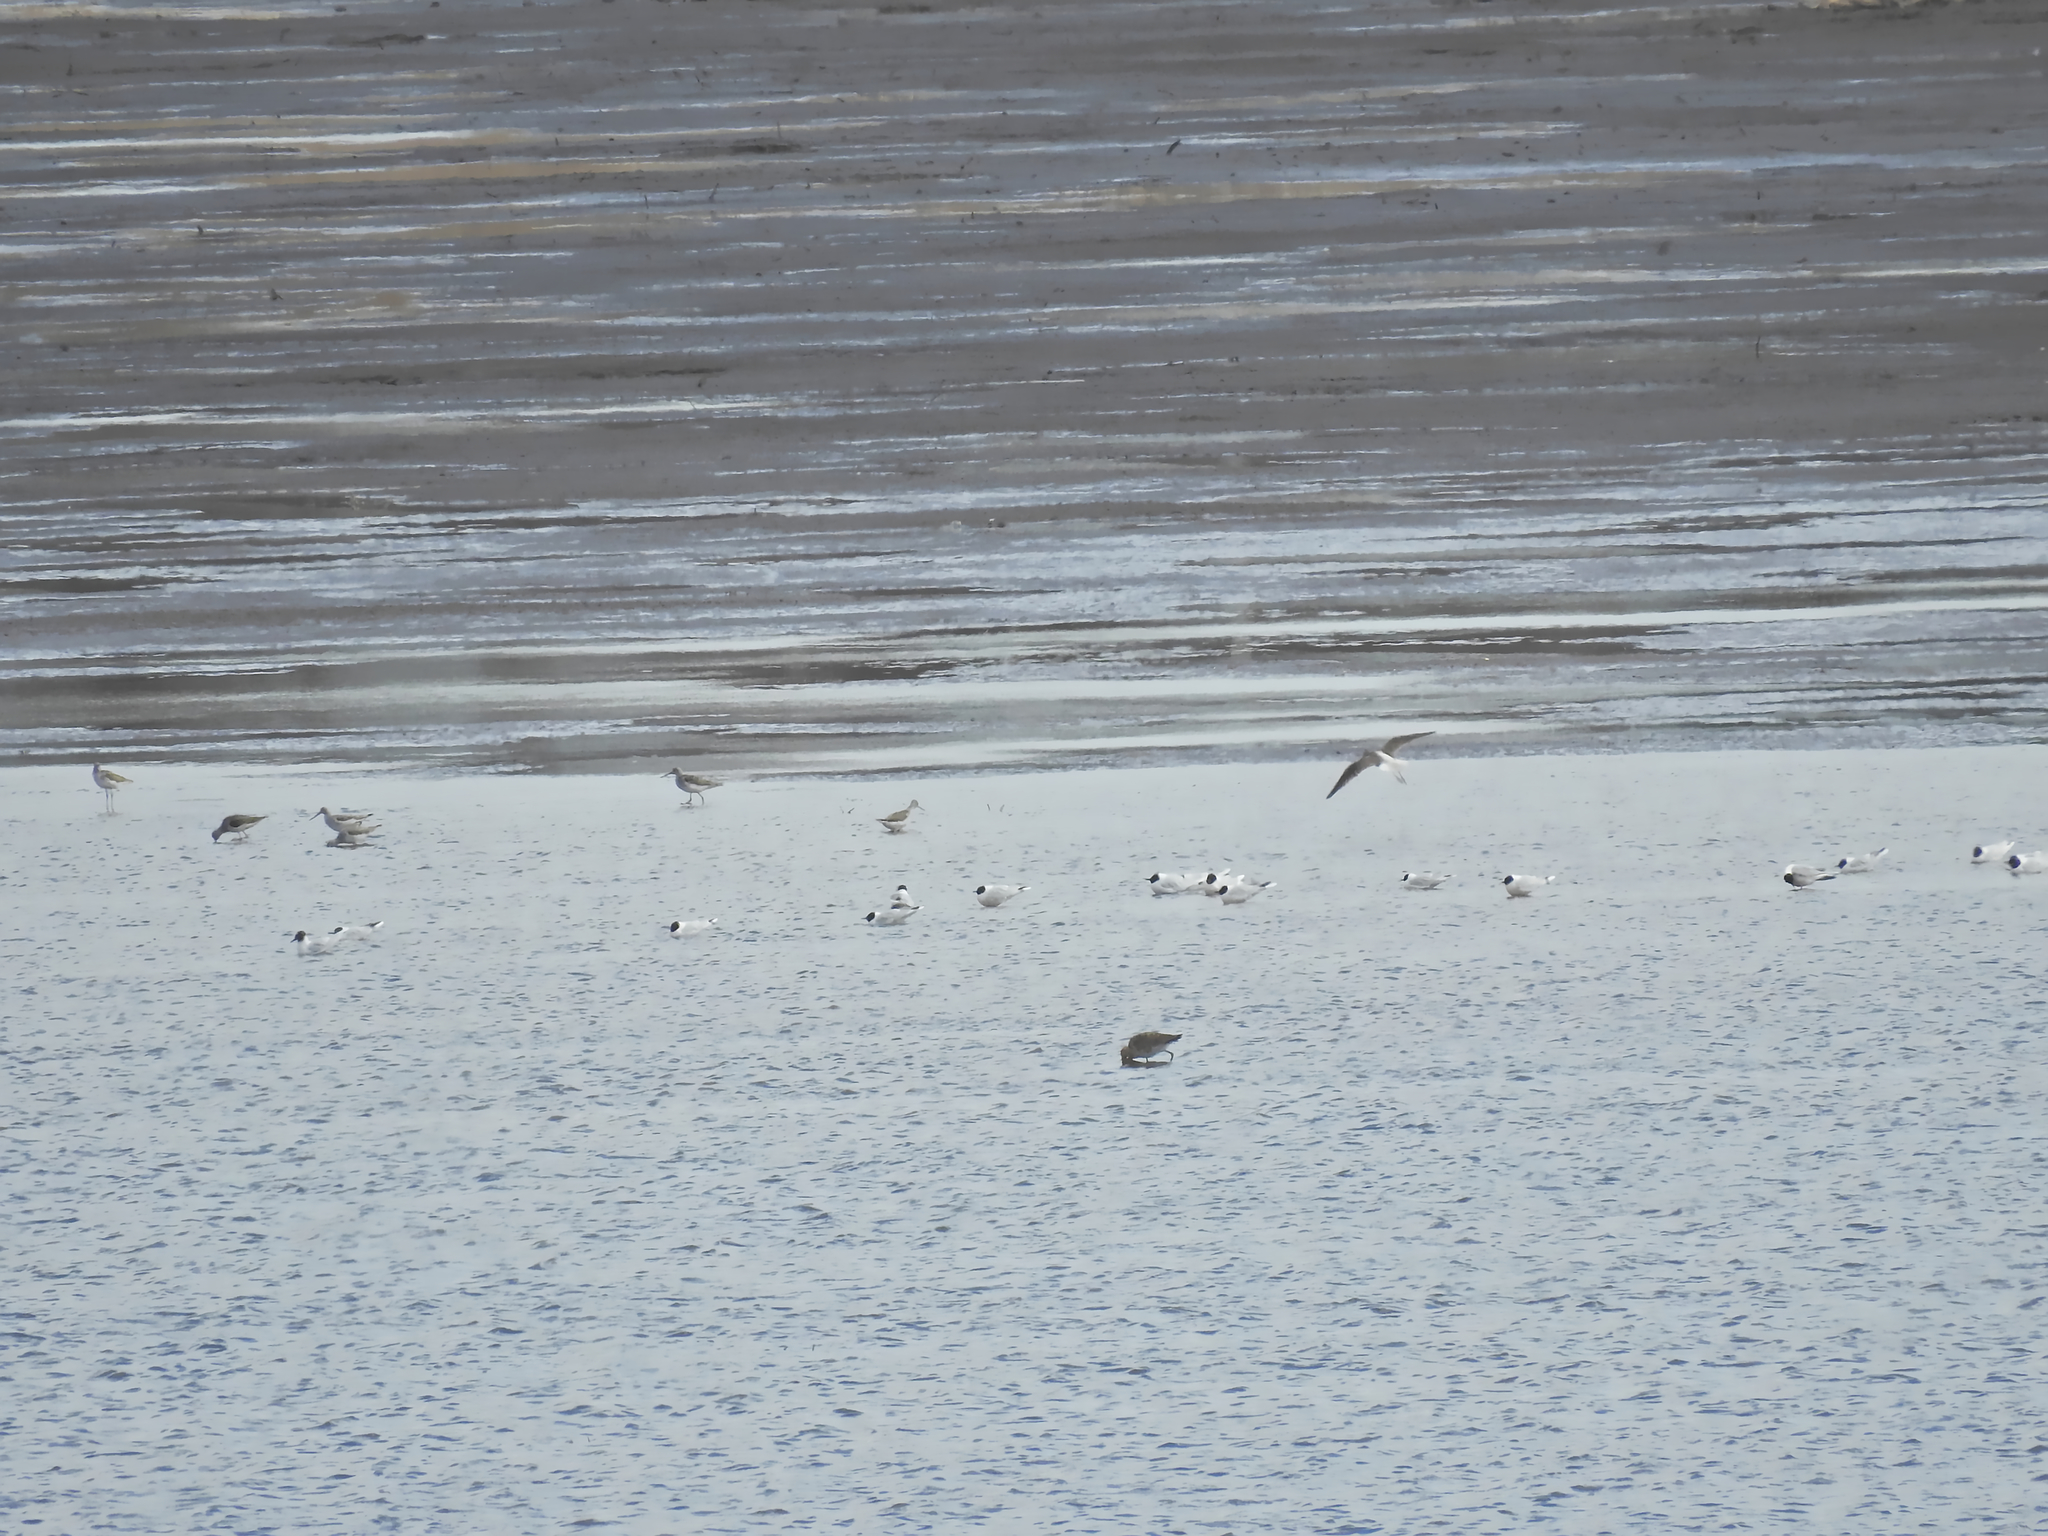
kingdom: Animalia
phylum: Chordata
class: Aves
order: Charadriiformes
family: Laridae
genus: Hydrocoloeus
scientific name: Hydrocoloeus minutus
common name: Little gull
